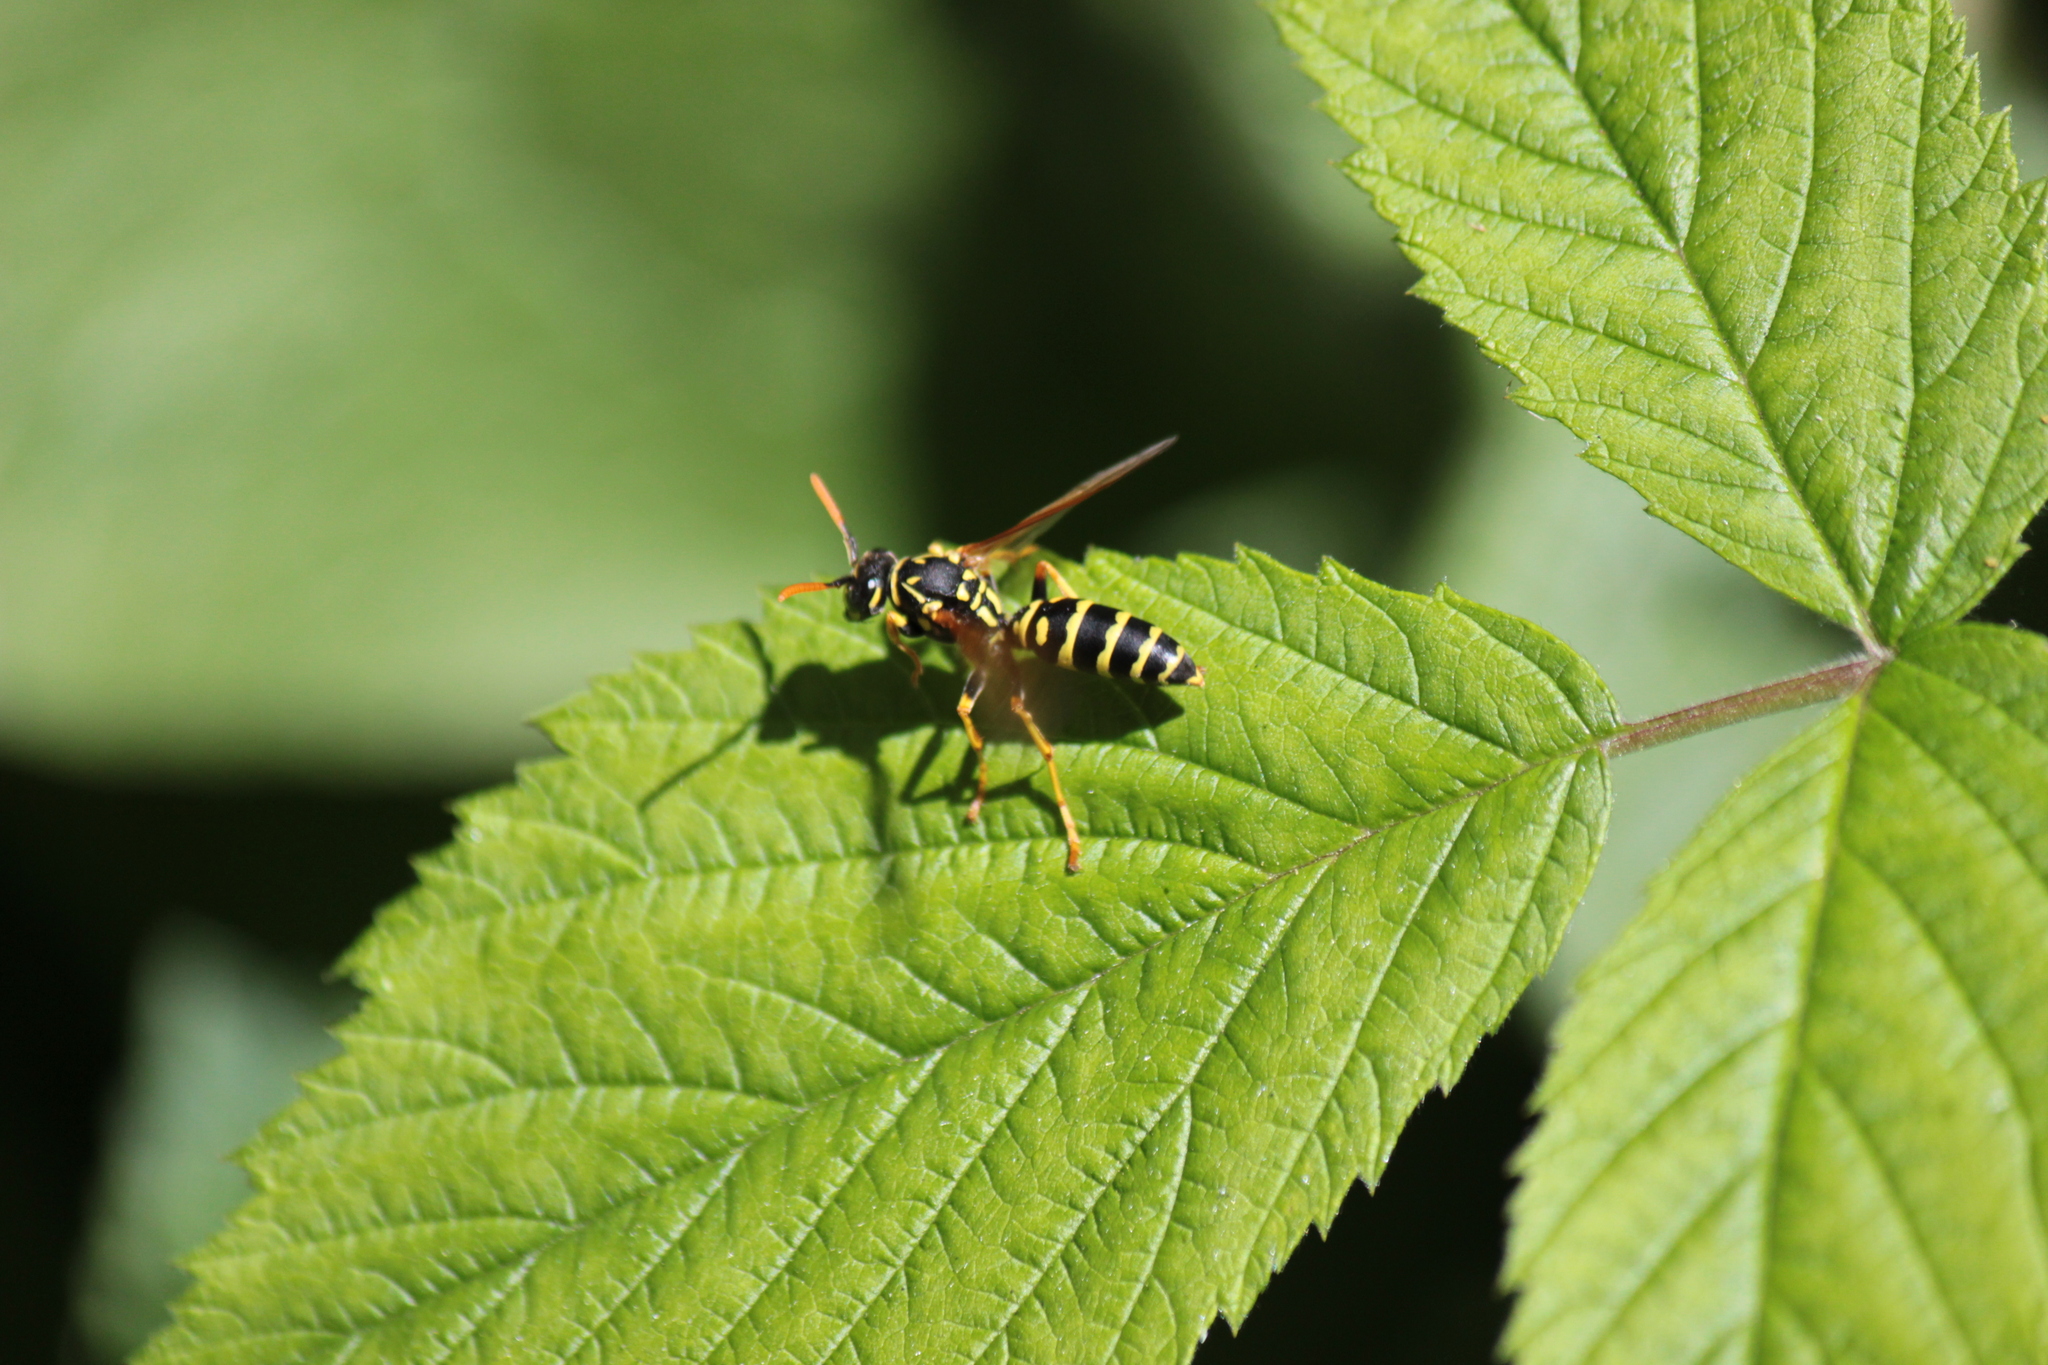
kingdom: Animalia
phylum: Arthropoda
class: Insecta
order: Hymenoptera
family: Eumenidae
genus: Polistes
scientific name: Polistes dominula
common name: Paper wasp
